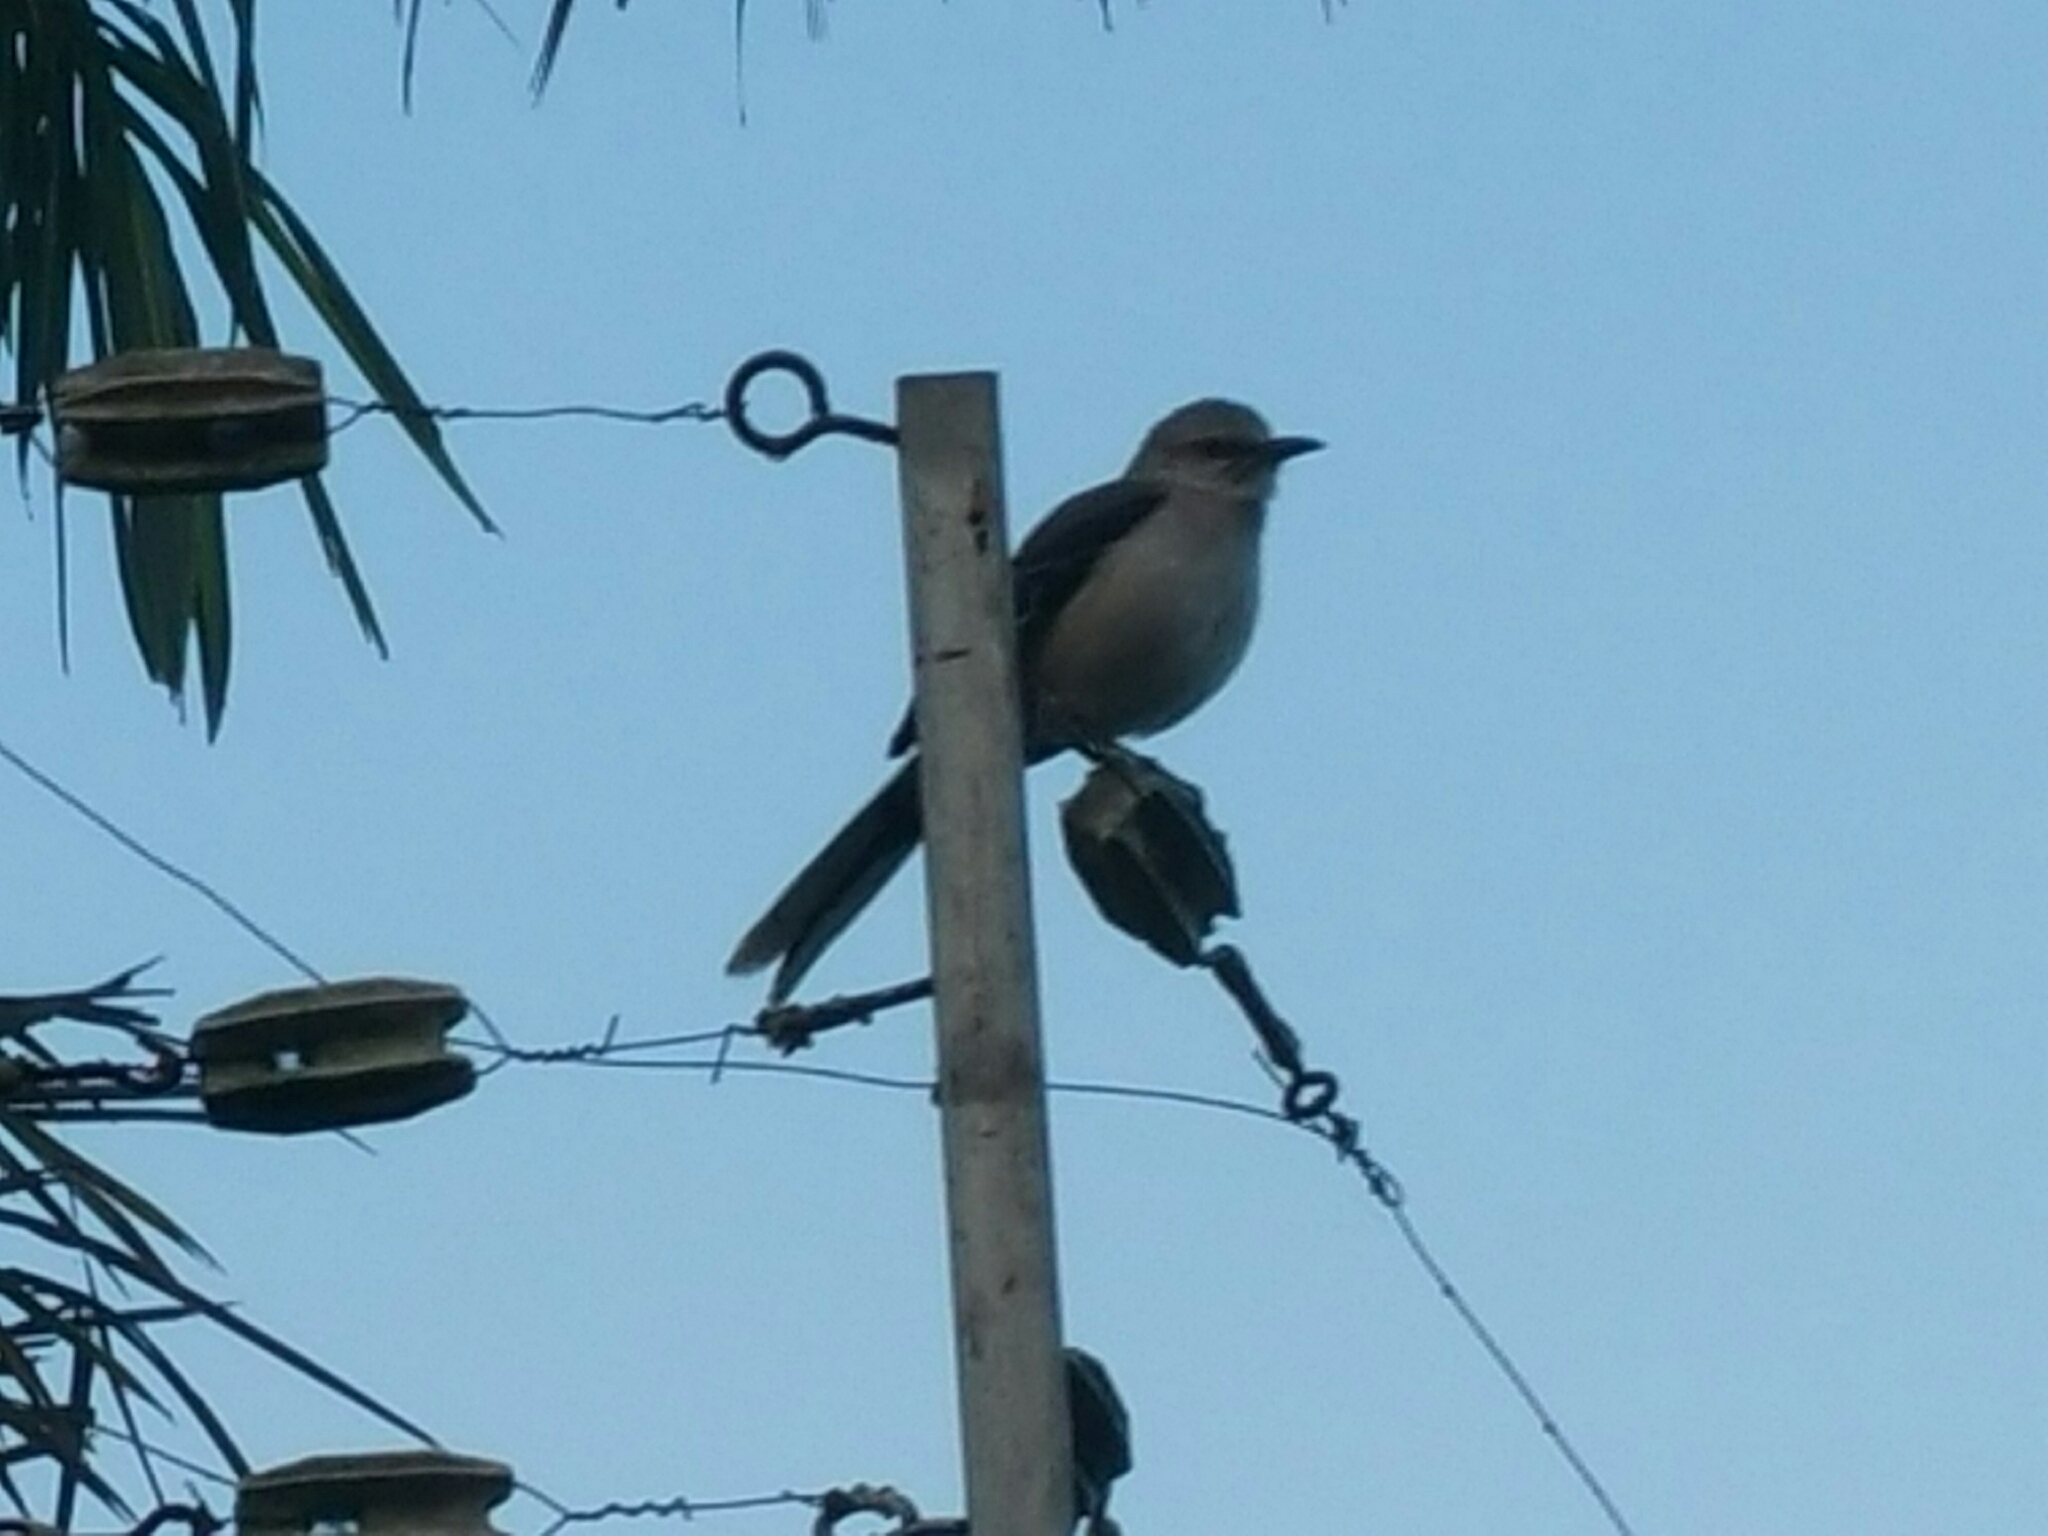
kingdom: Animalia
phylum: Chordata
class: Aves
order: Passeriformes
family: Mimidae
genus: Mimus
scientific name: Mimus gilvus
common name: Tropical mockingbird
